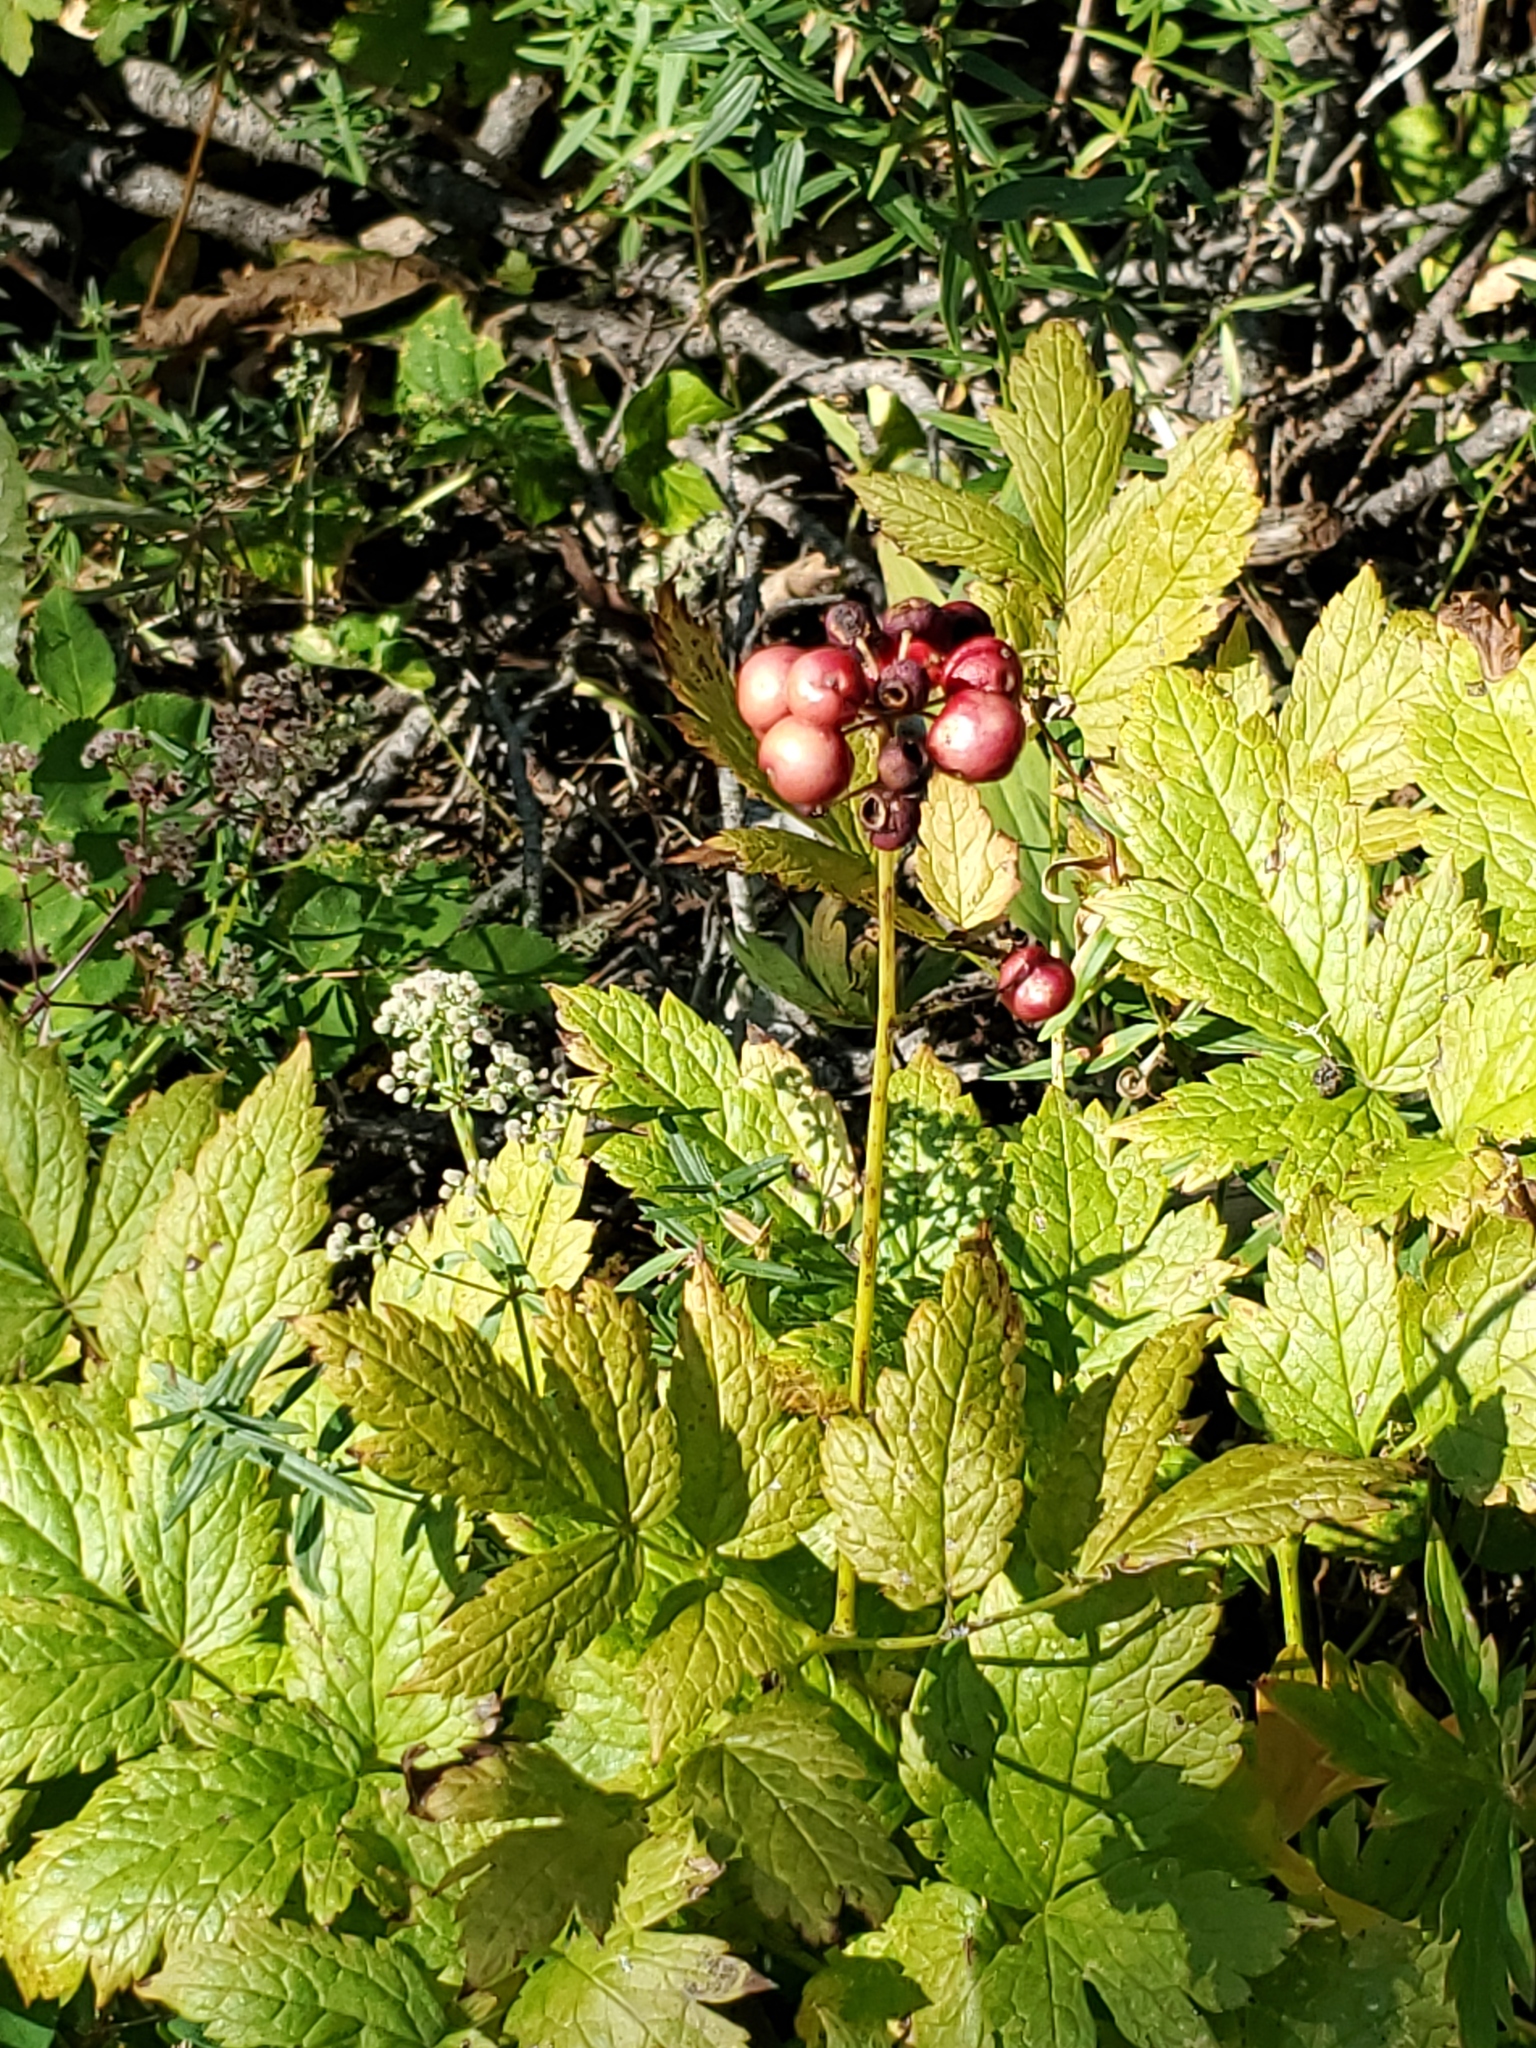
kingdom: Plantae
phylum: Tracheophyta
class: Magnoliopsida
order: Ranunculales
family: Ranunculaceae
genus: Actaea
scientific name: Actaea rubra
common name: Red baneberry
